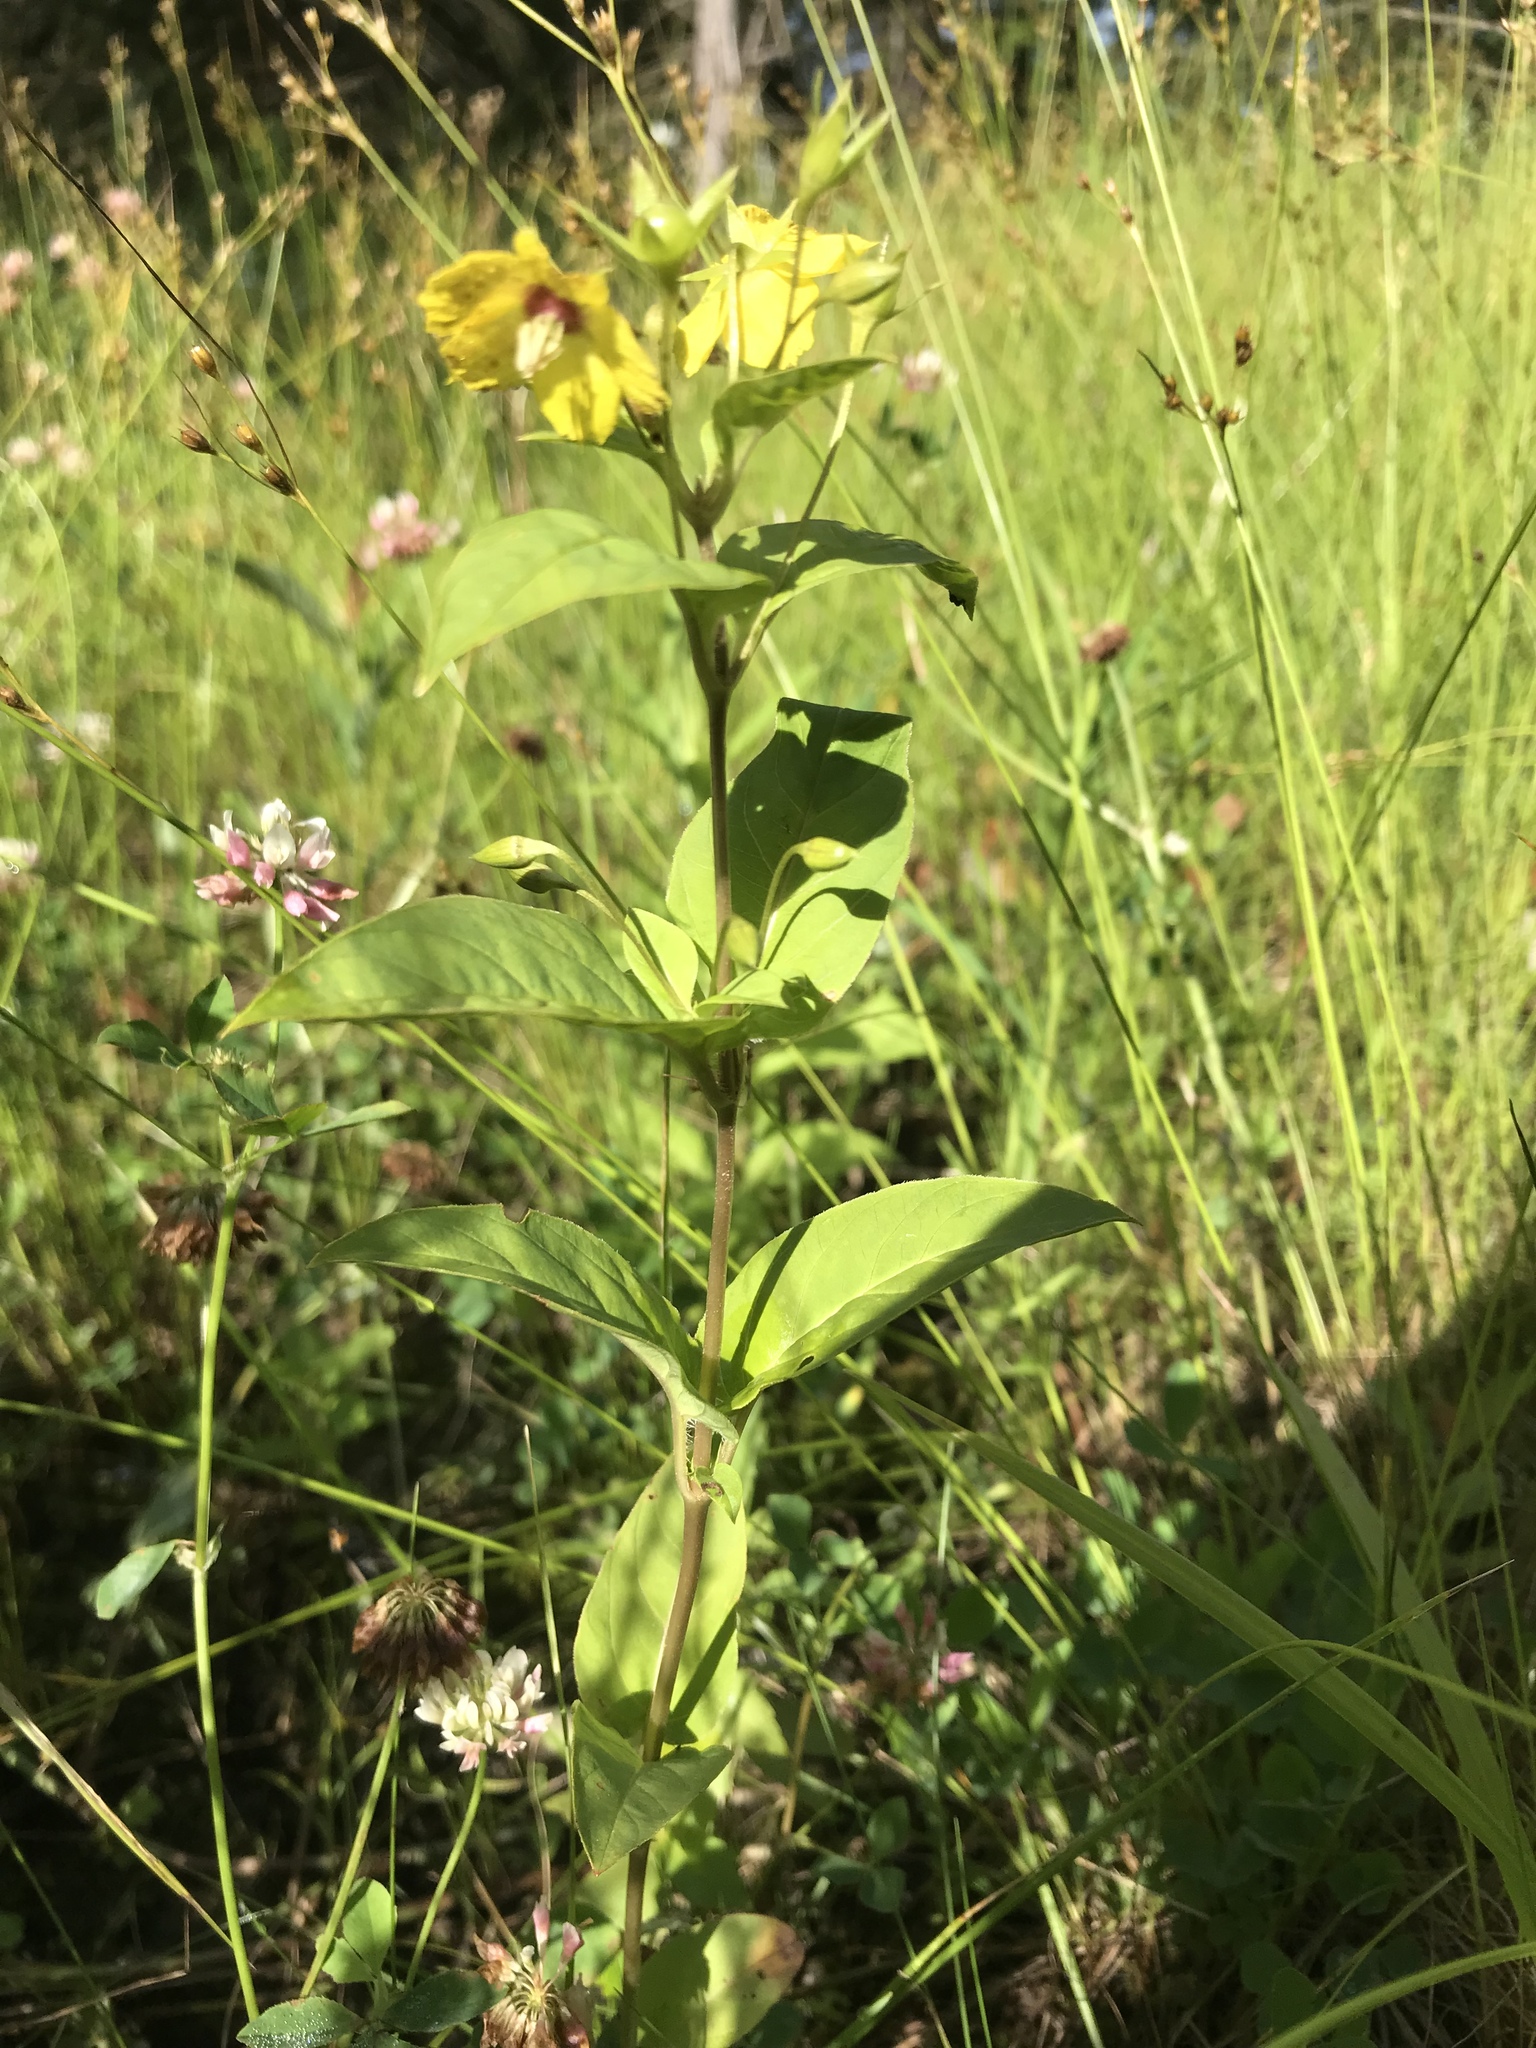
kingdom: Plantae
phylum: Tracheophyta
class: Magnoliopsida
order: Ericales
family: Primulaceae
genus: Lysimachia
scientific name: Lysimachia ciliata
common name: Fringed loosestrife
